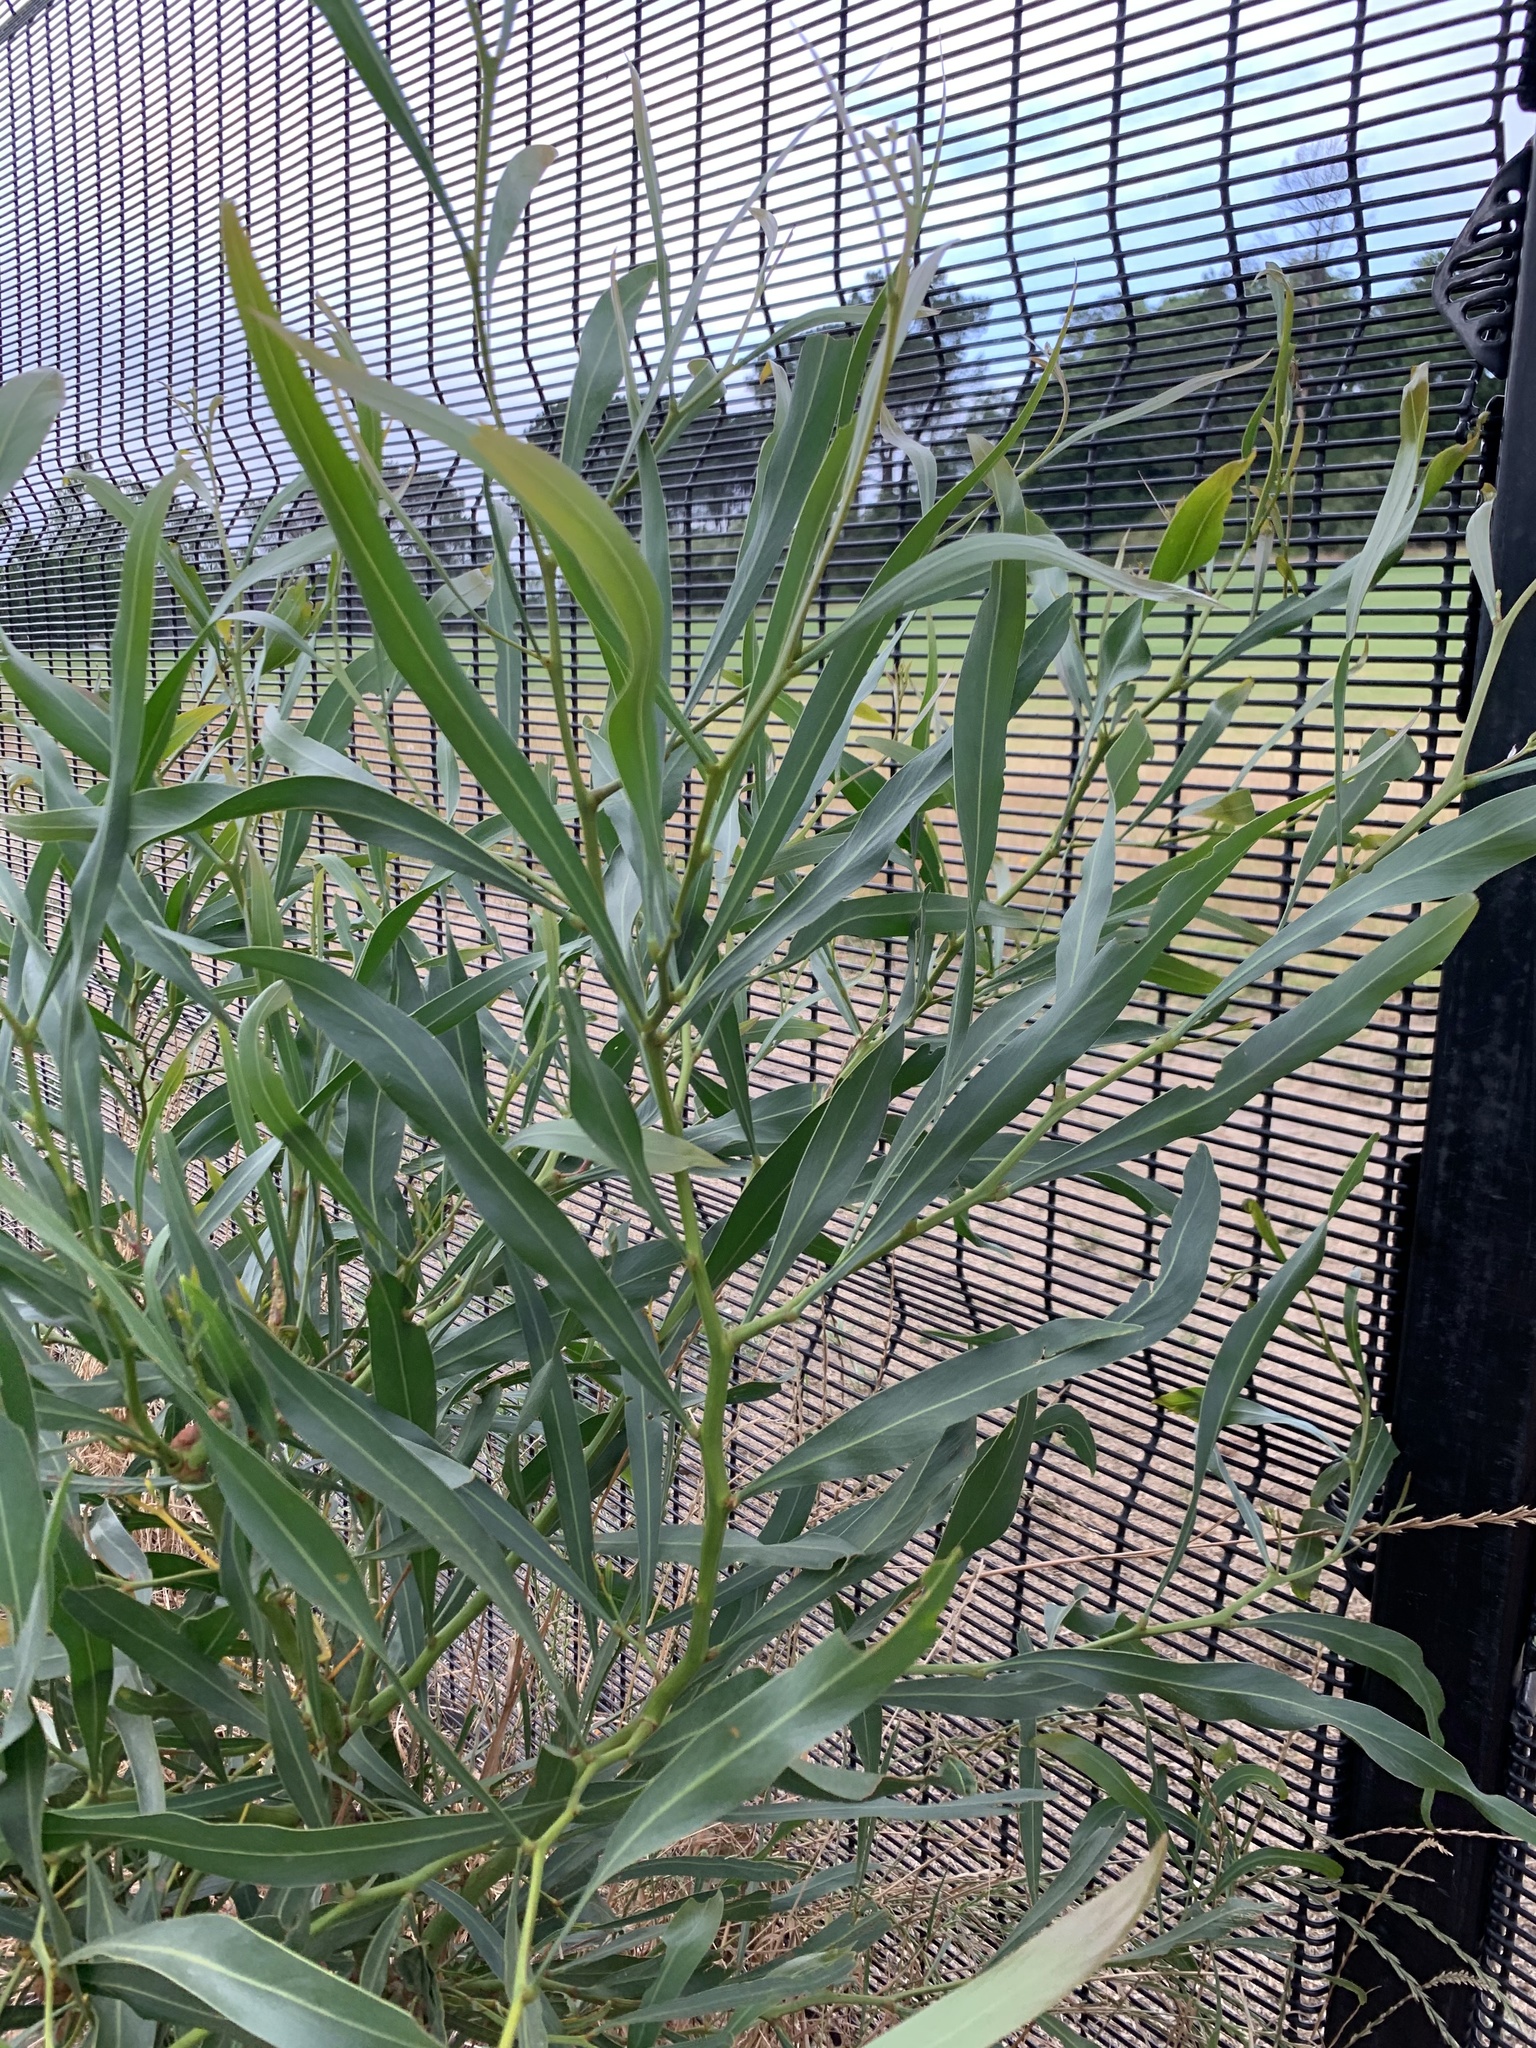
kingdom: Plantae
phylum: Tracheophyta
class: Magnoliopsida
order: Fabales
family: Fabaceae
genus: Acacia
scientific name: Acacia saligna
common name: Orange wattle
